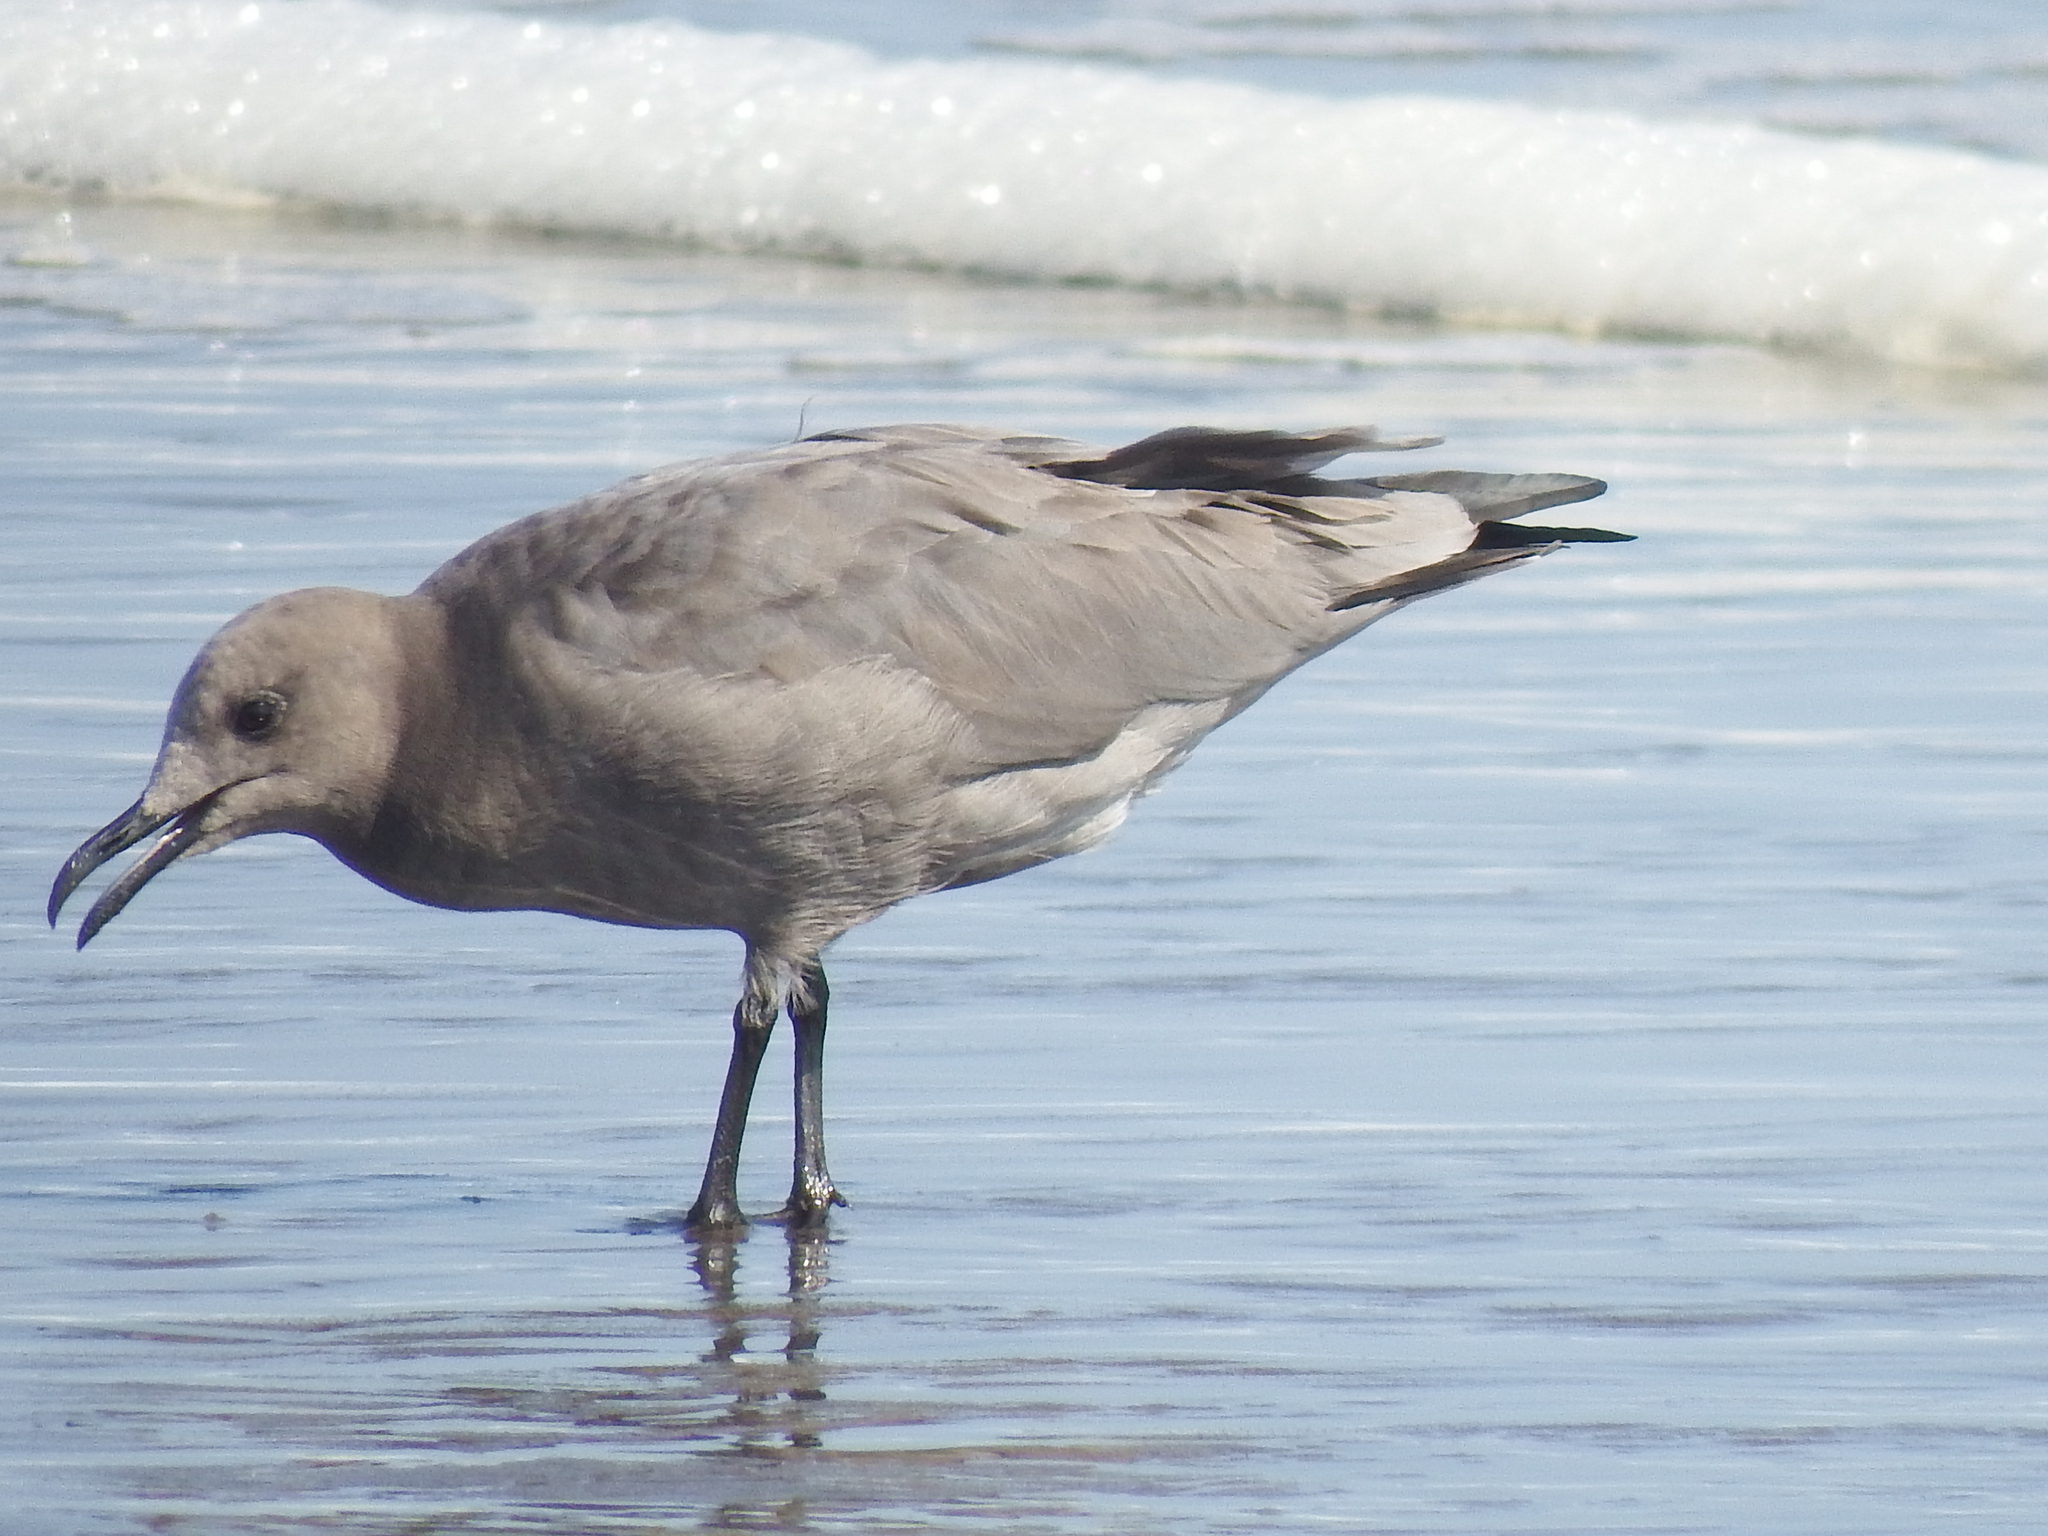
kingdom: Animalia
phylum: Chordata
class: Aves
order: Charadriiformes
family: Laridae
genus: Leucophaeus
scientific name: Leucophaeus modestus
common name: Gray gull
